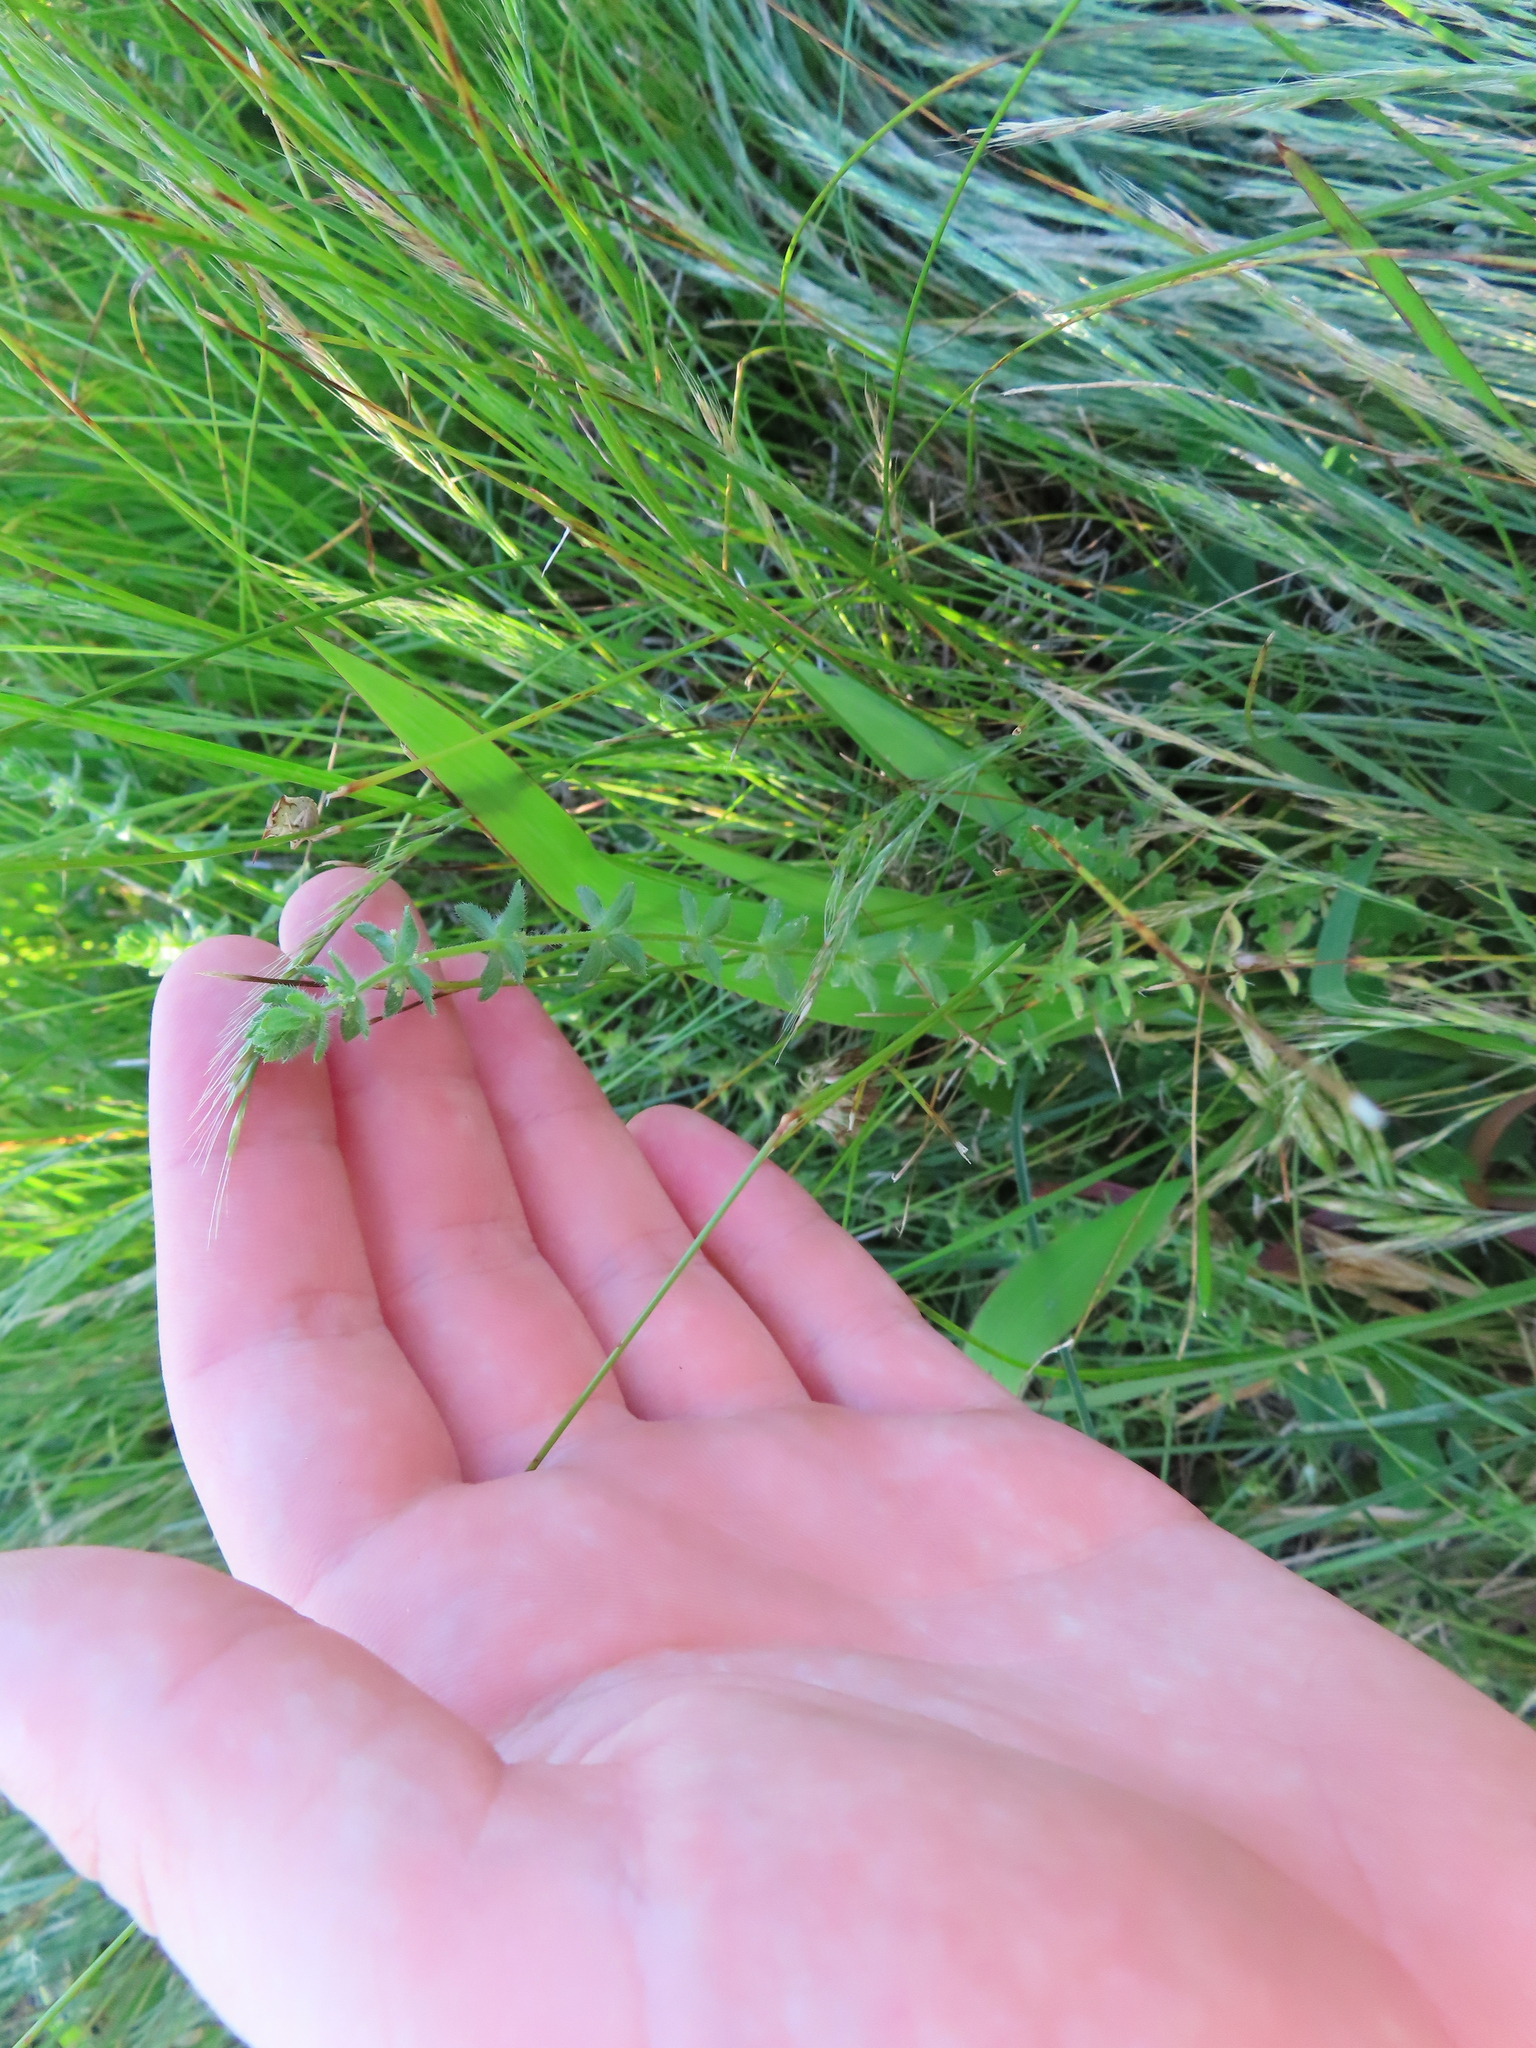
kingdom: Plantae
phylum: Tracheophyta
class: Magnoliopsida
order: Gentianales
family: Rubiaceae
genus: Cruciata
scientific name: Cruciata pedemontana
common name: Piedmont bedstraw
